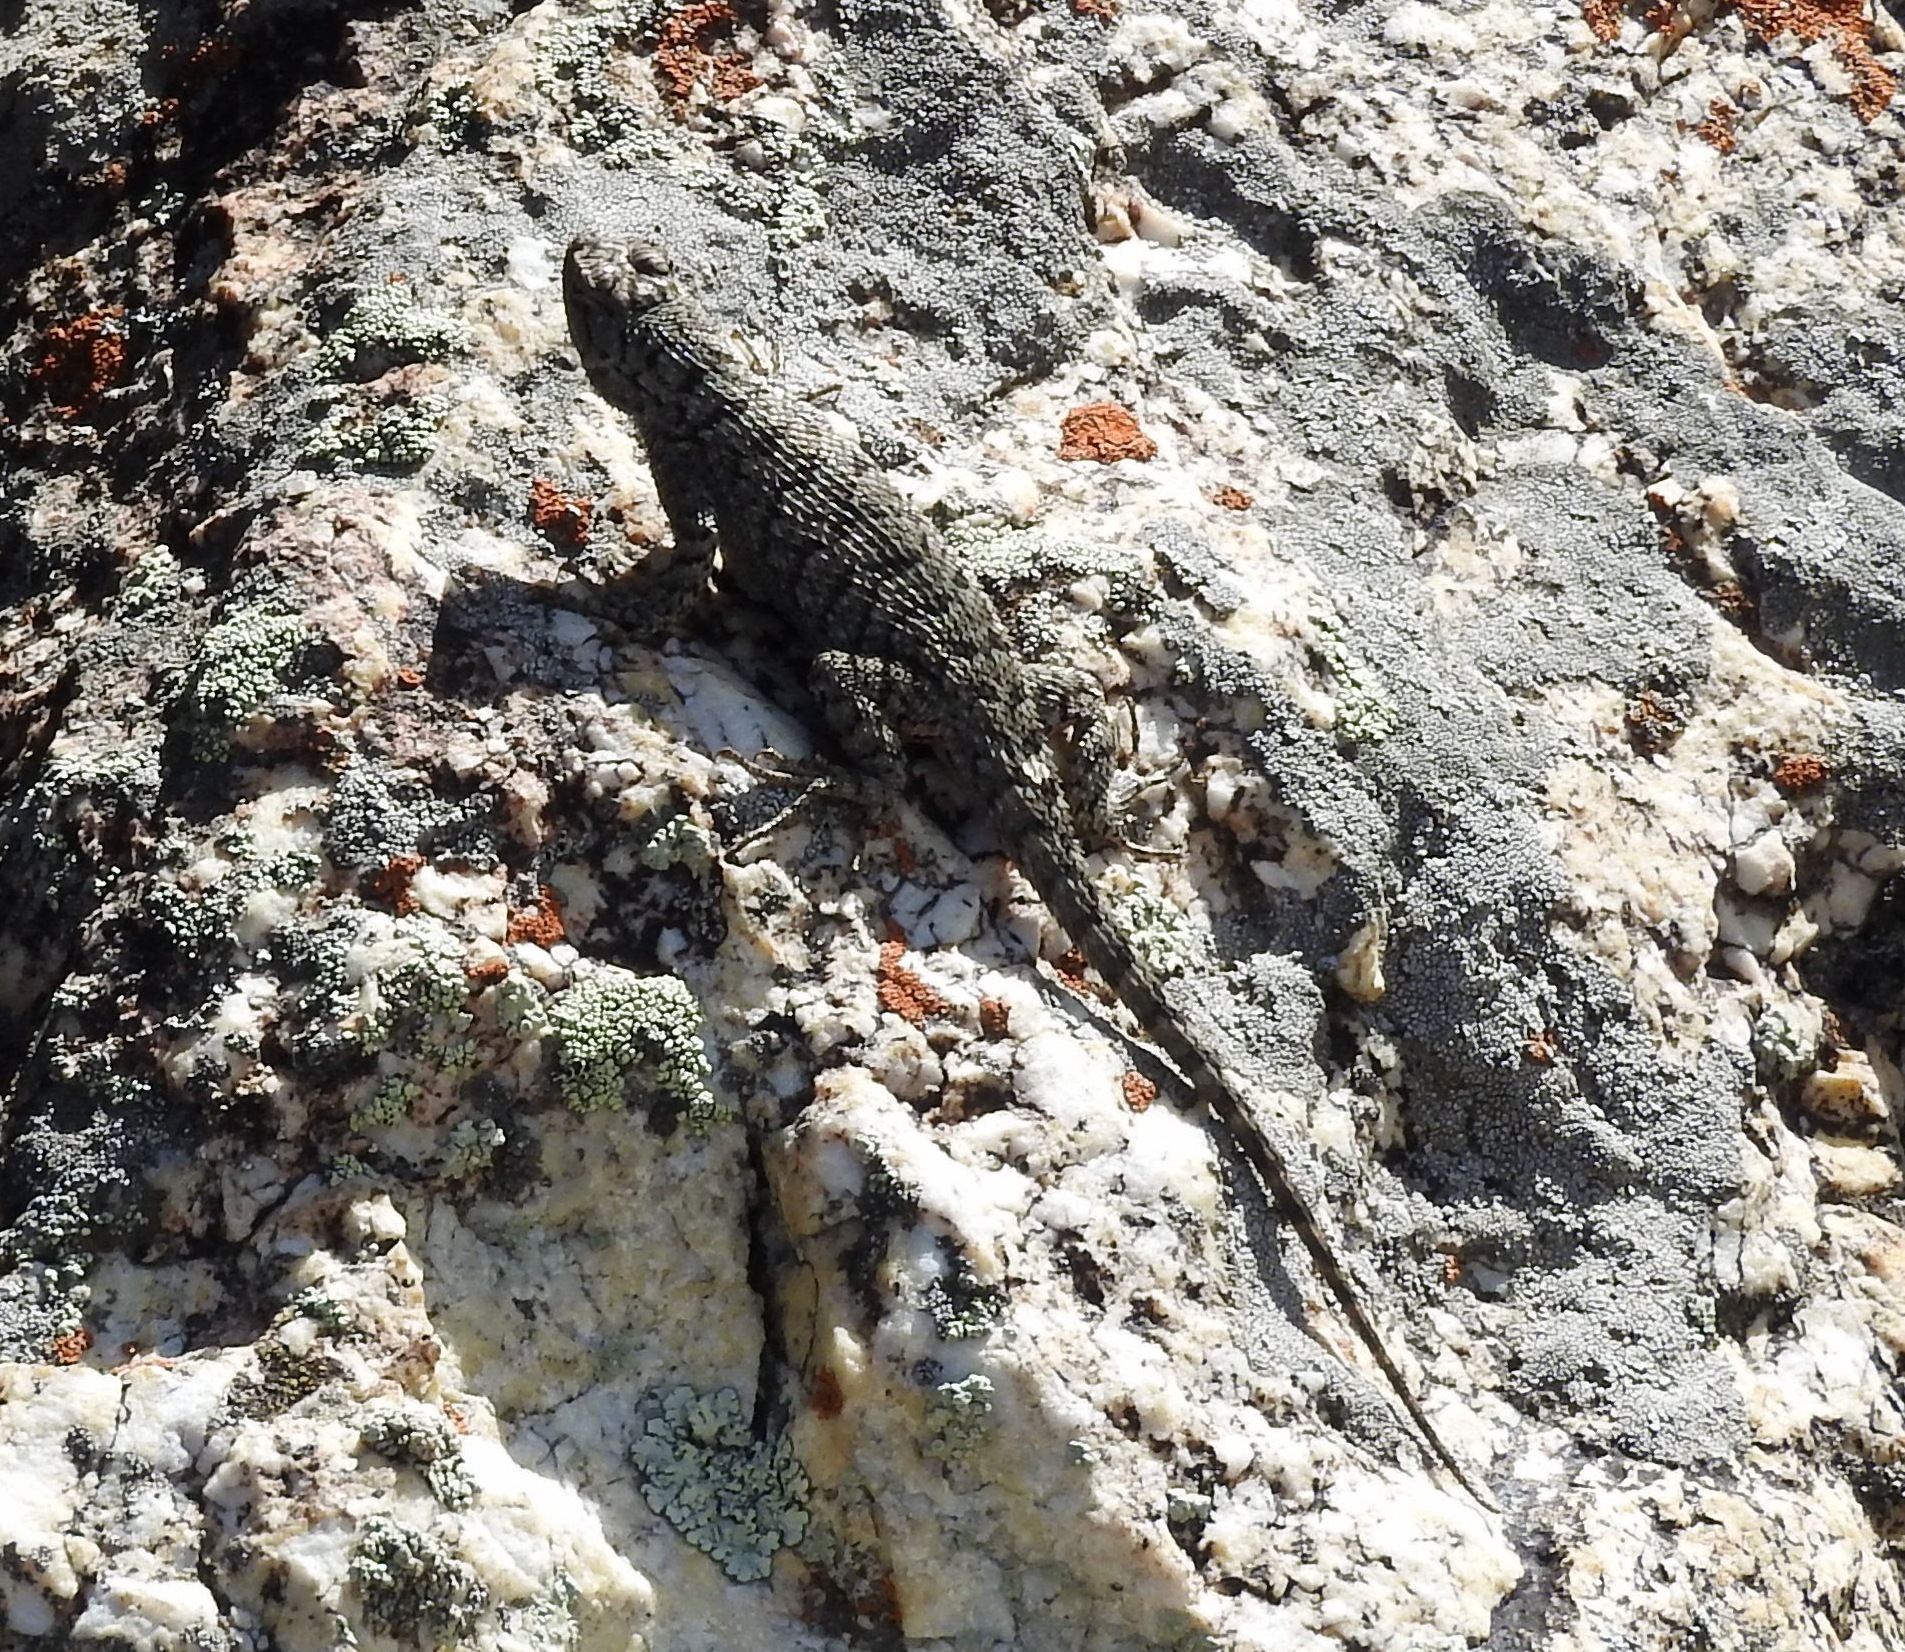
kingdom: Animalia
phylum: Chordata
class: Squamata
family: Phrynosomatidae
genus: Sceloporus
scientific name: Sceloporus occidentalis
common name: Western fence lizard
